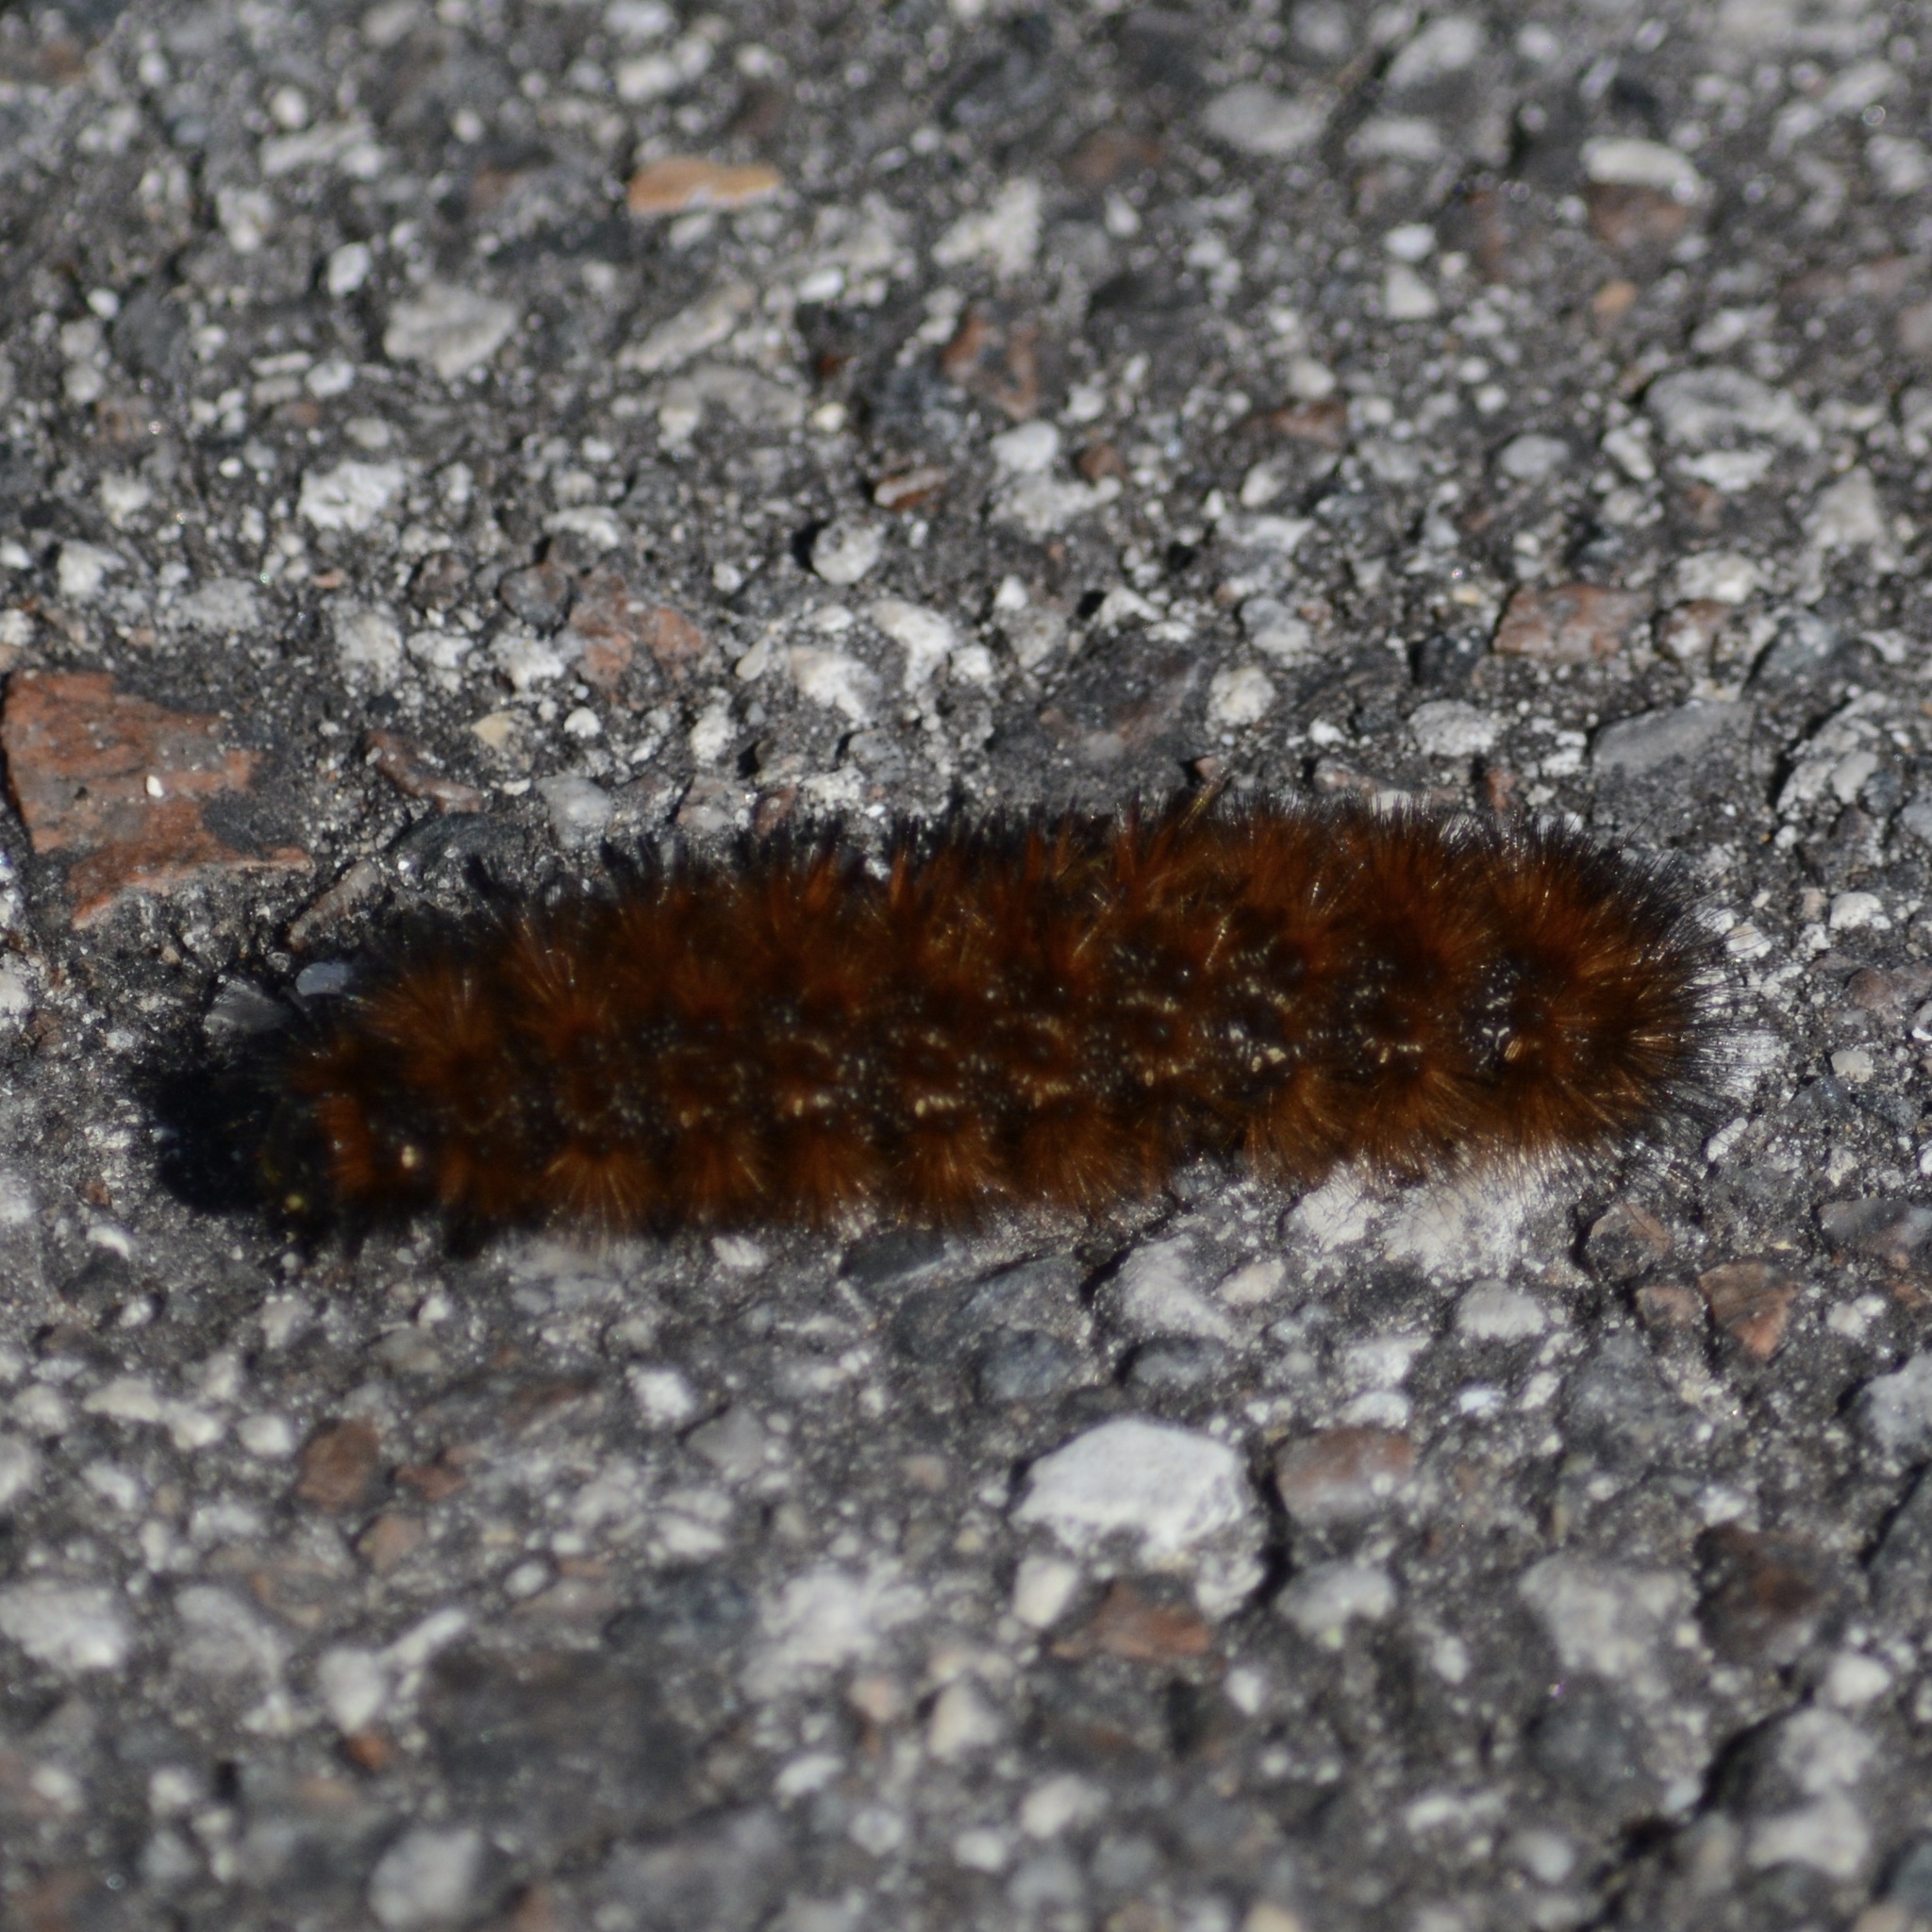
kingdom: Animalia
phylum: Arthropoda
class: Insecta
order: Lepidoptera
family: Erebidae
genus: Pyrrharctia
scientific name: Pyrrharctia isabella
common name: Isabella tiger moth
